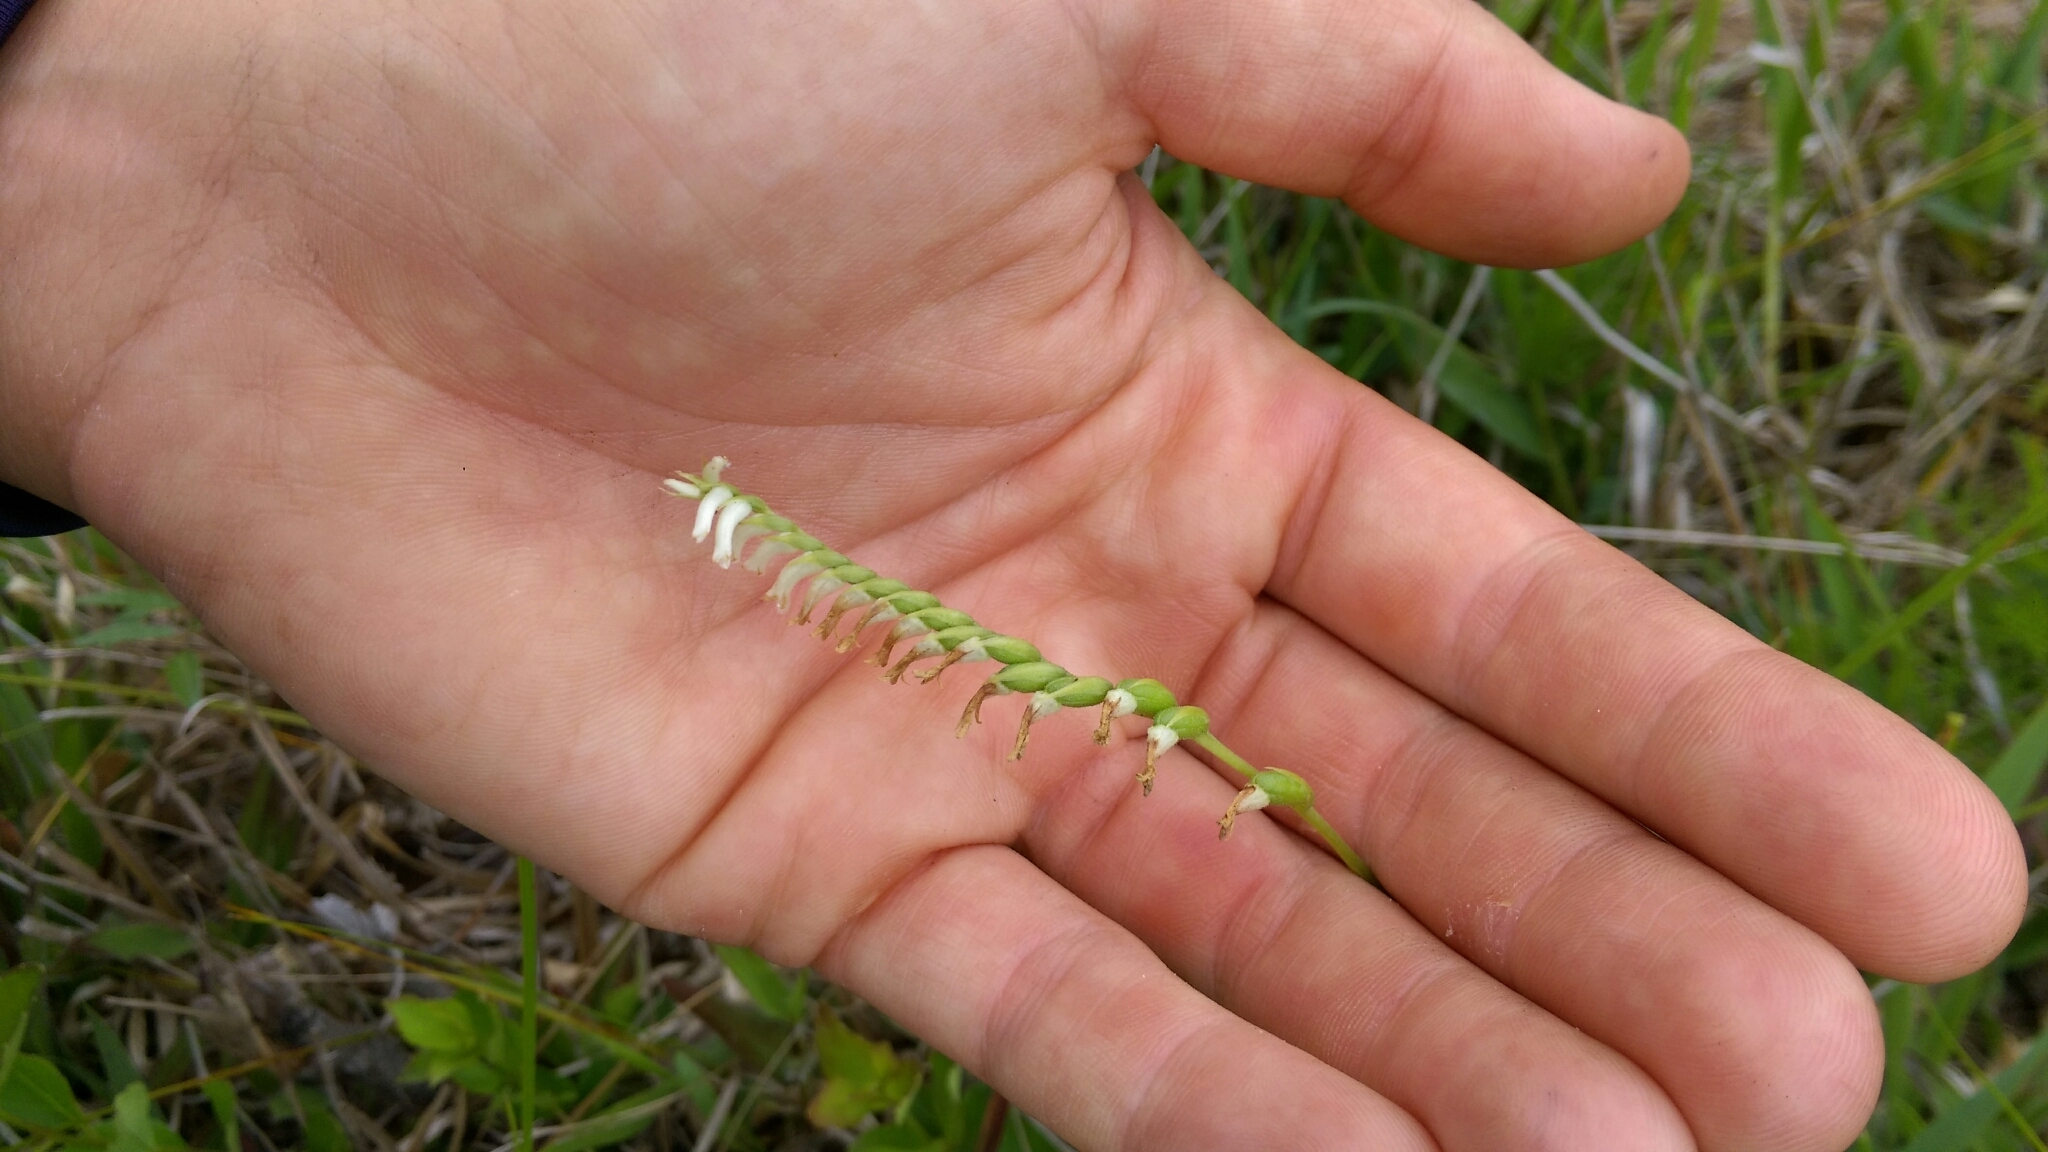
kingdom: Plantae
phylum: Tracheophyta
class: Liliopsida
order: Asparagales
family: Orchidaceae
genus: Spiranthes
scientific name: Spiranthes praecox
